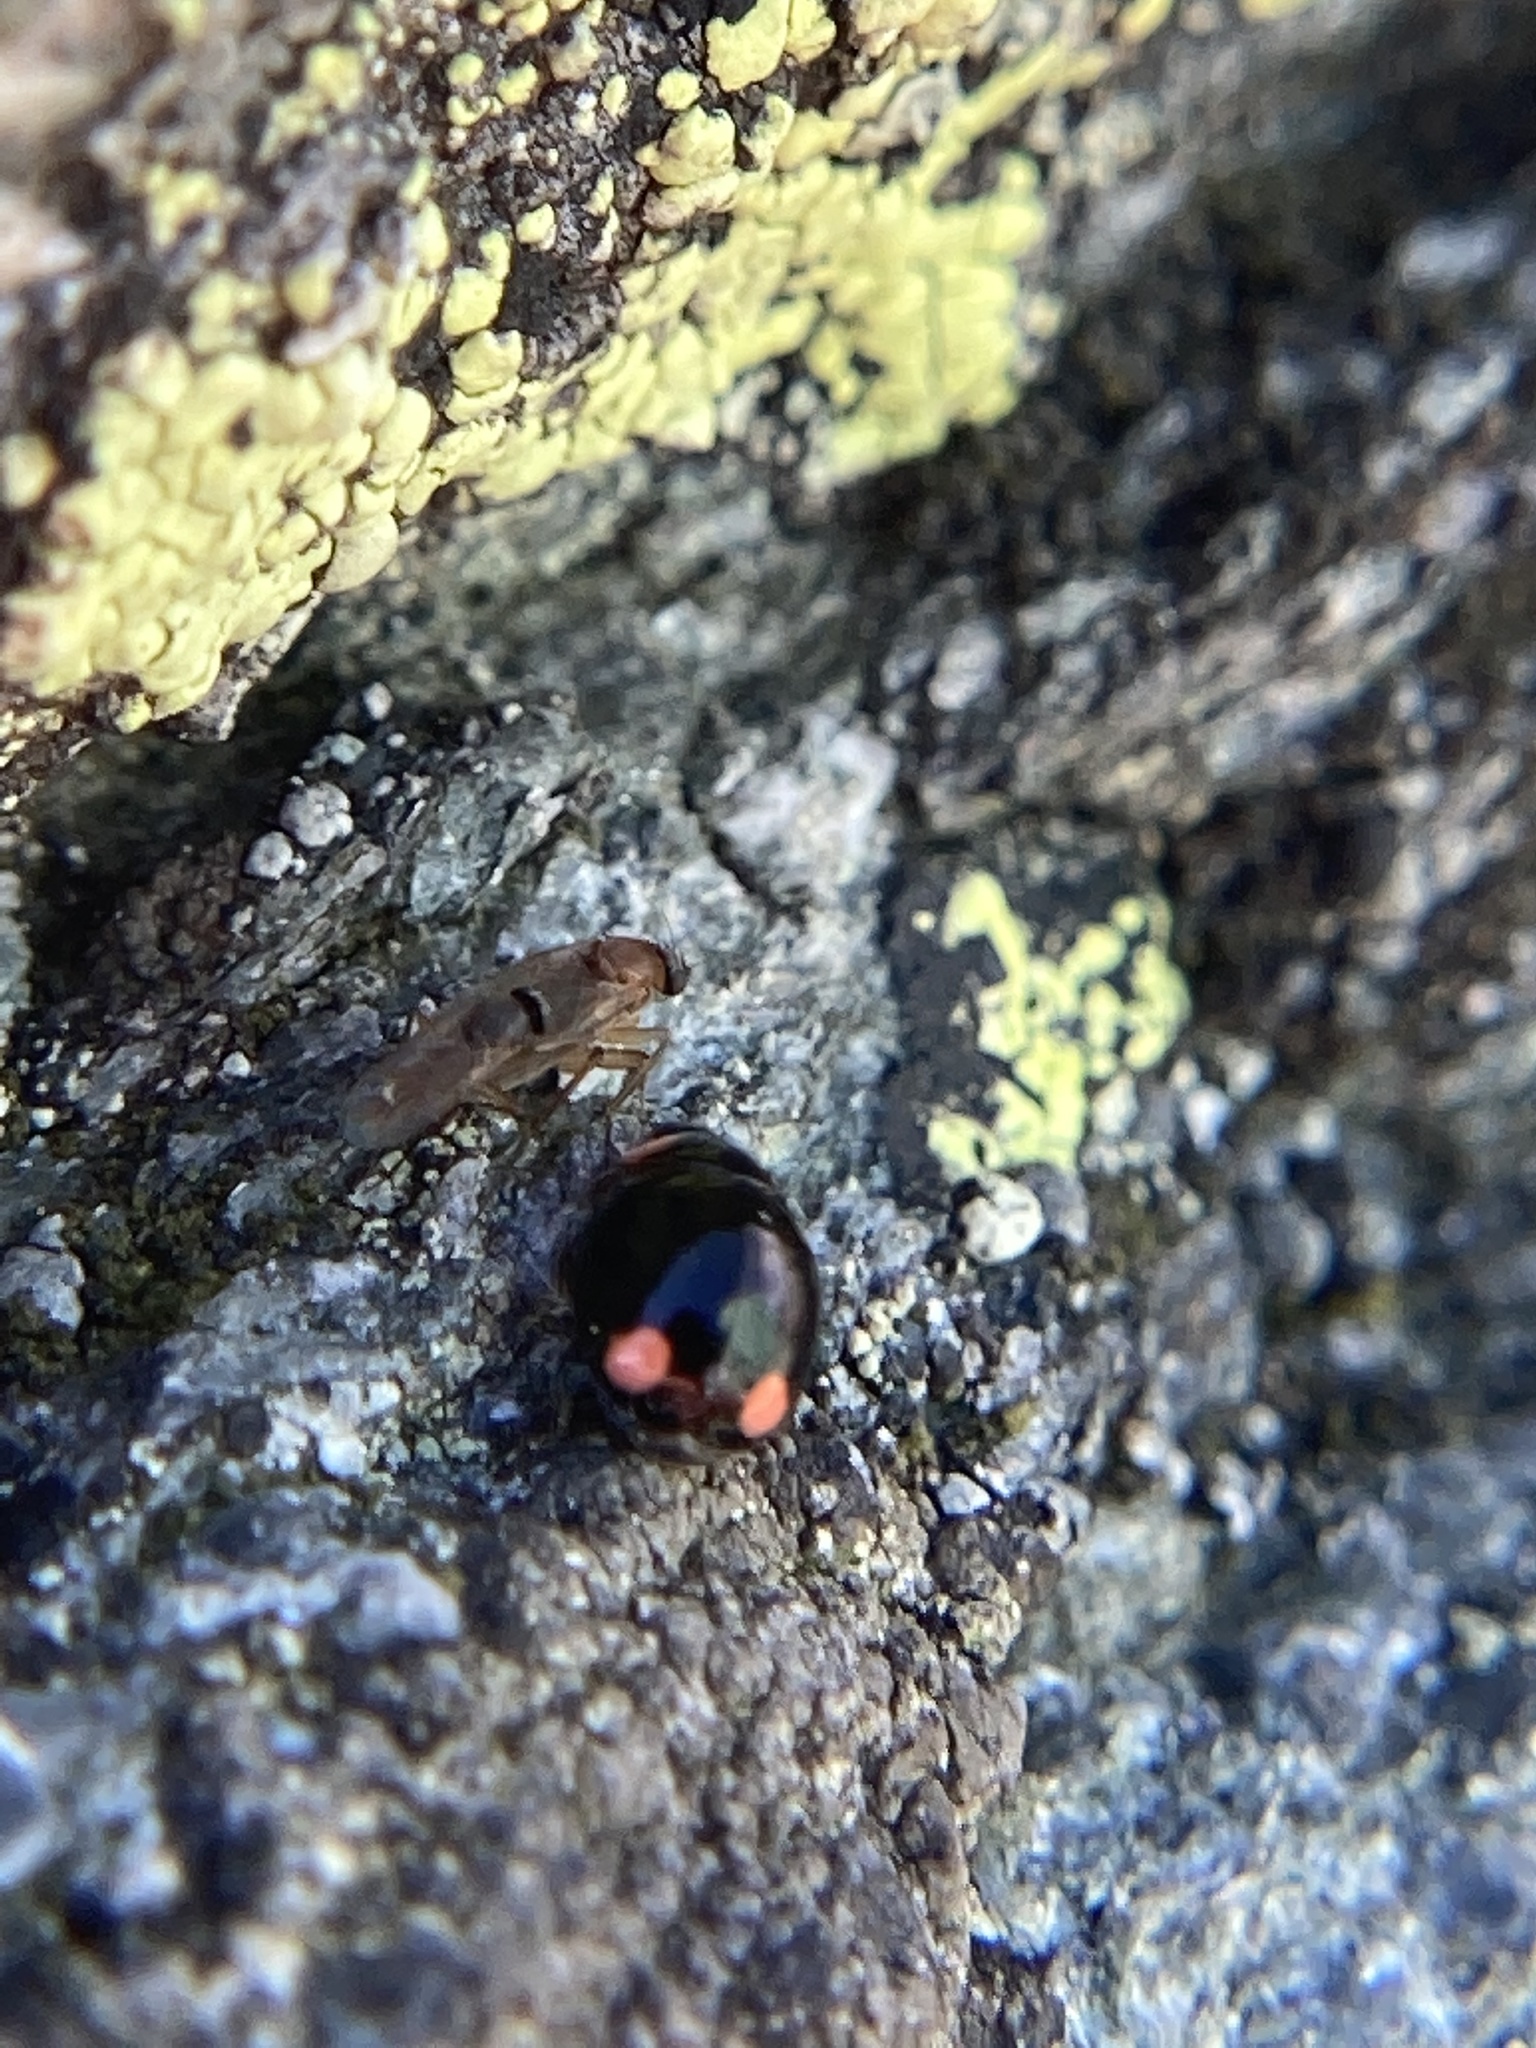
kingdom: Animalia
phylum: Arthropoda
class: Insecta
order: Coleoptera
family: Coccinellidae
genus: Hyperaspis
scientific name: Hyperaspis bigeminata
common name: Bigeminate sigil lady beetle
